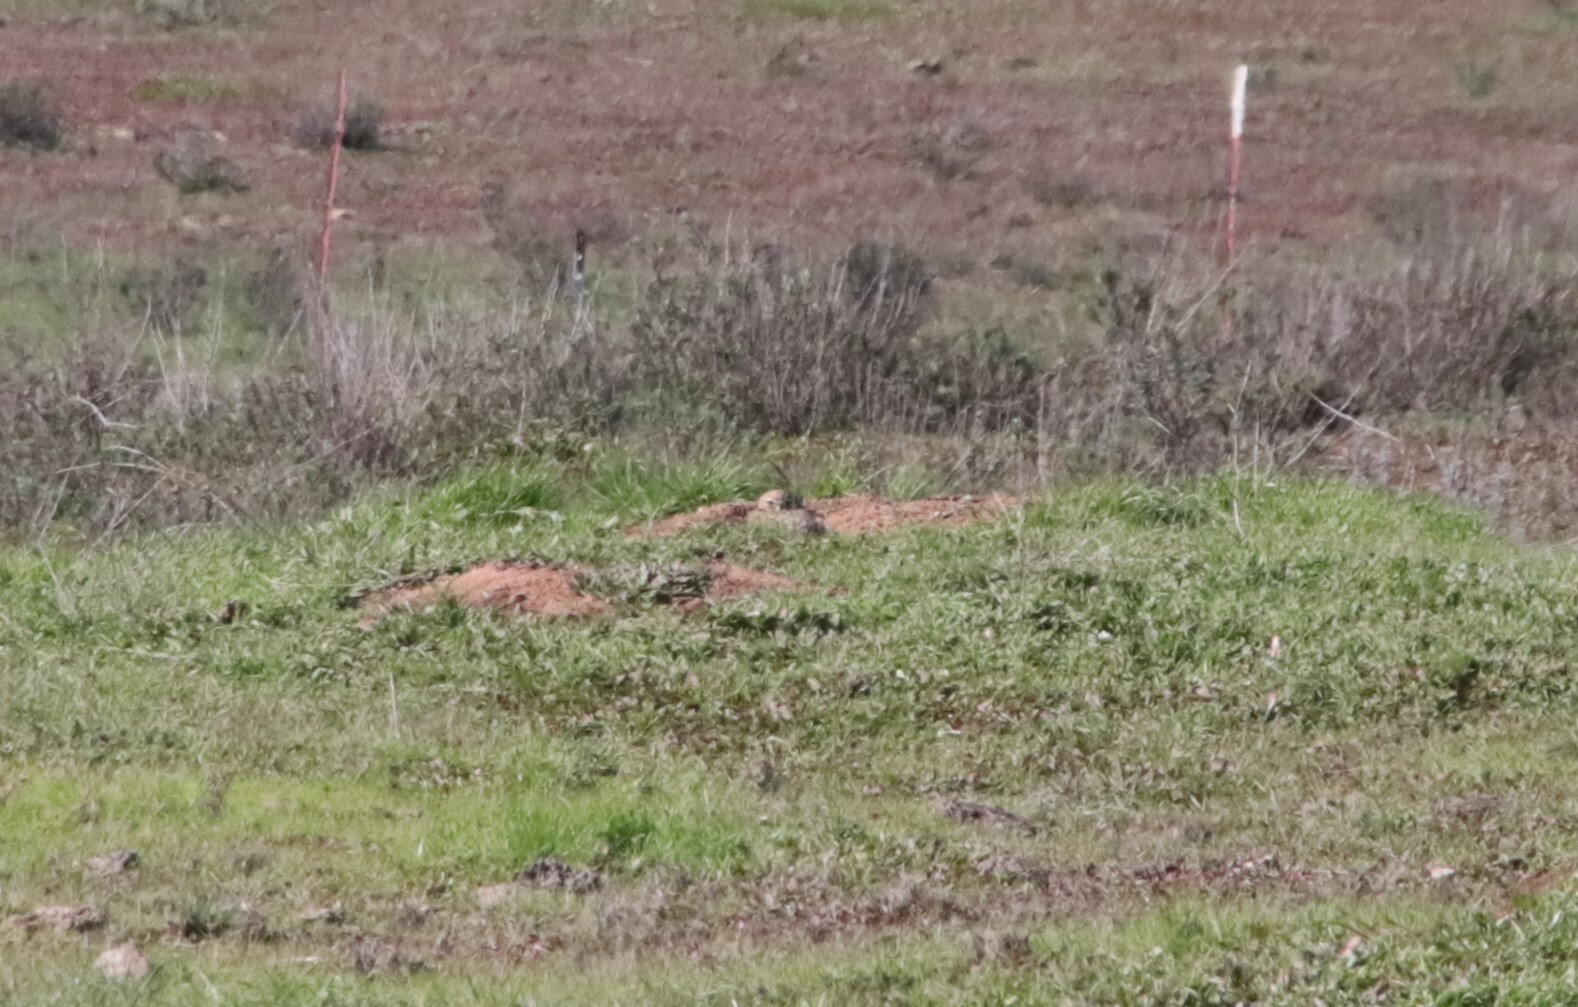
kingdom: Animalia
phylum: Chordata
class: Aves
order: Strigiformes
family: Strigidae
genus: Athene
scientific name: Athene cunicularia
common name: Burrowing owl
